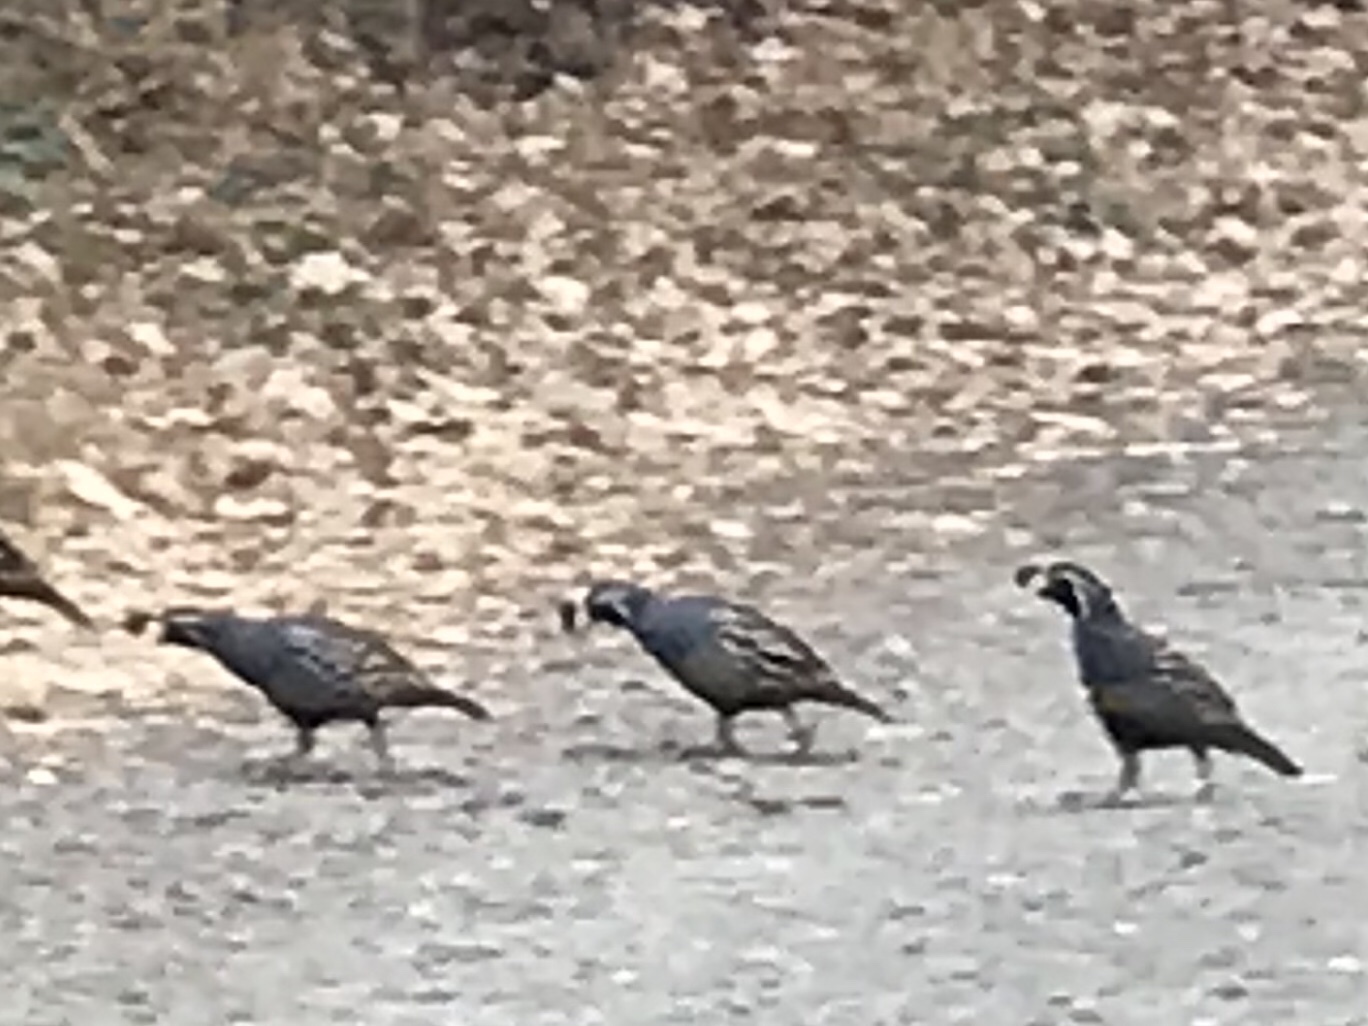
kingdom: Animalia
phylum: Chordata
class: Aves
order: Galliformes
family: Odontophoridae
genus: Callipepla
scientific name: Callipepla californica
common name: California quail
